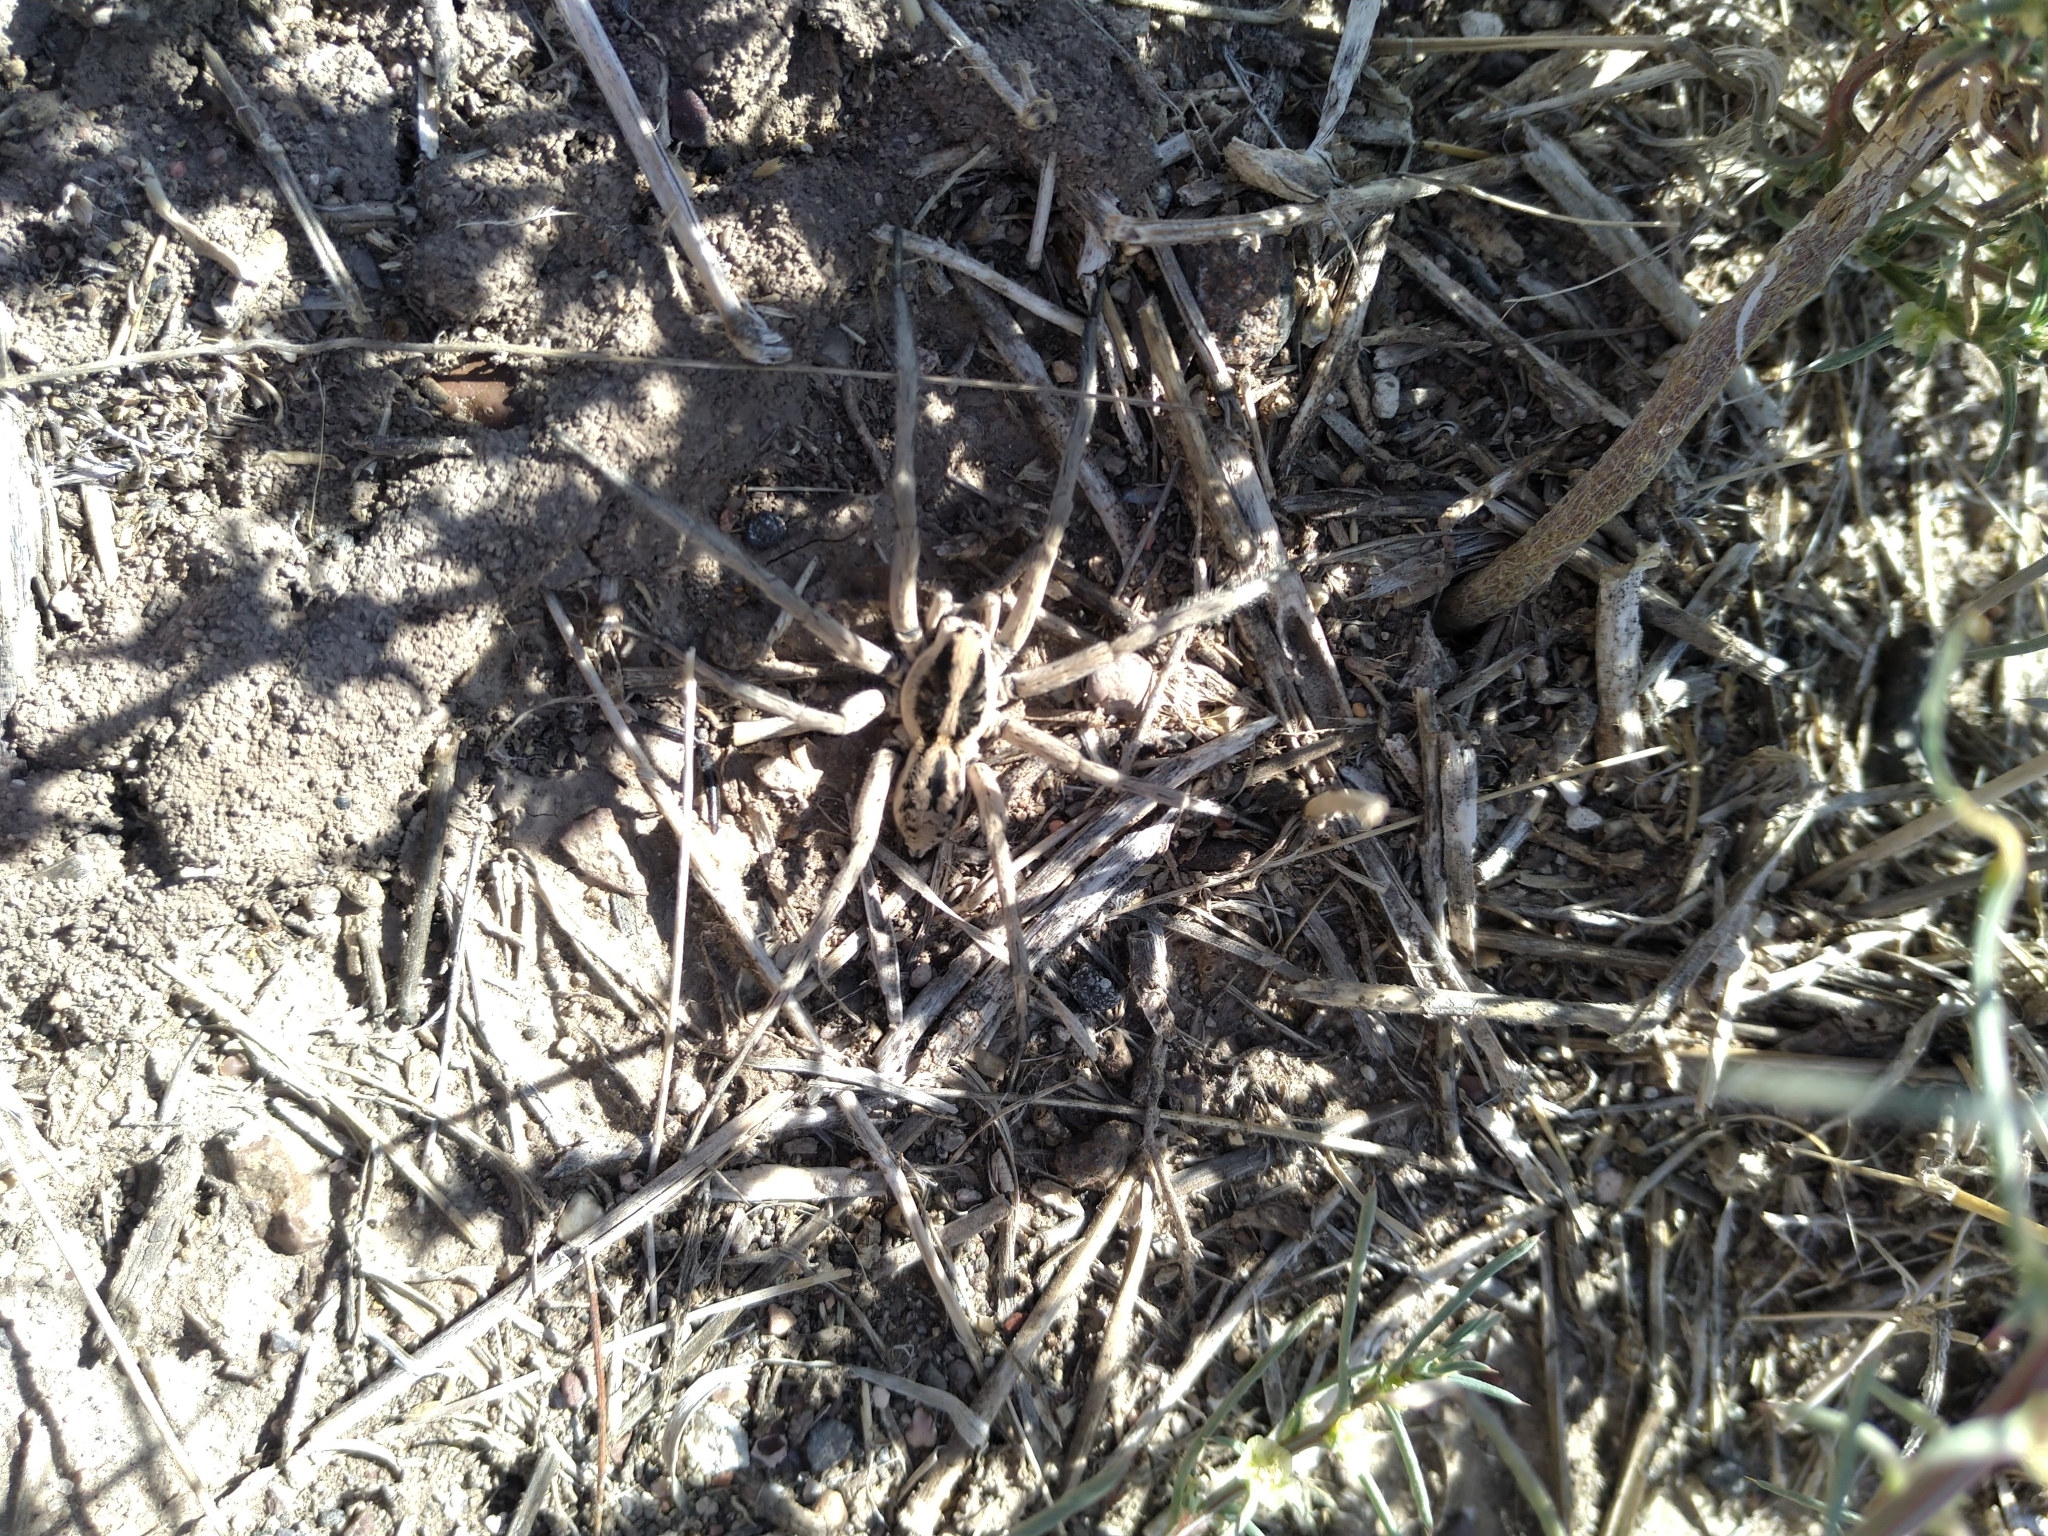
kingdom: Animalia
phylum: Arthropoda
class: Arachnida
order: Araneae
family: Lycosidae
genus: Hogna
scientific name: Hogna carolinensis
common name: Carolina wolf spider
